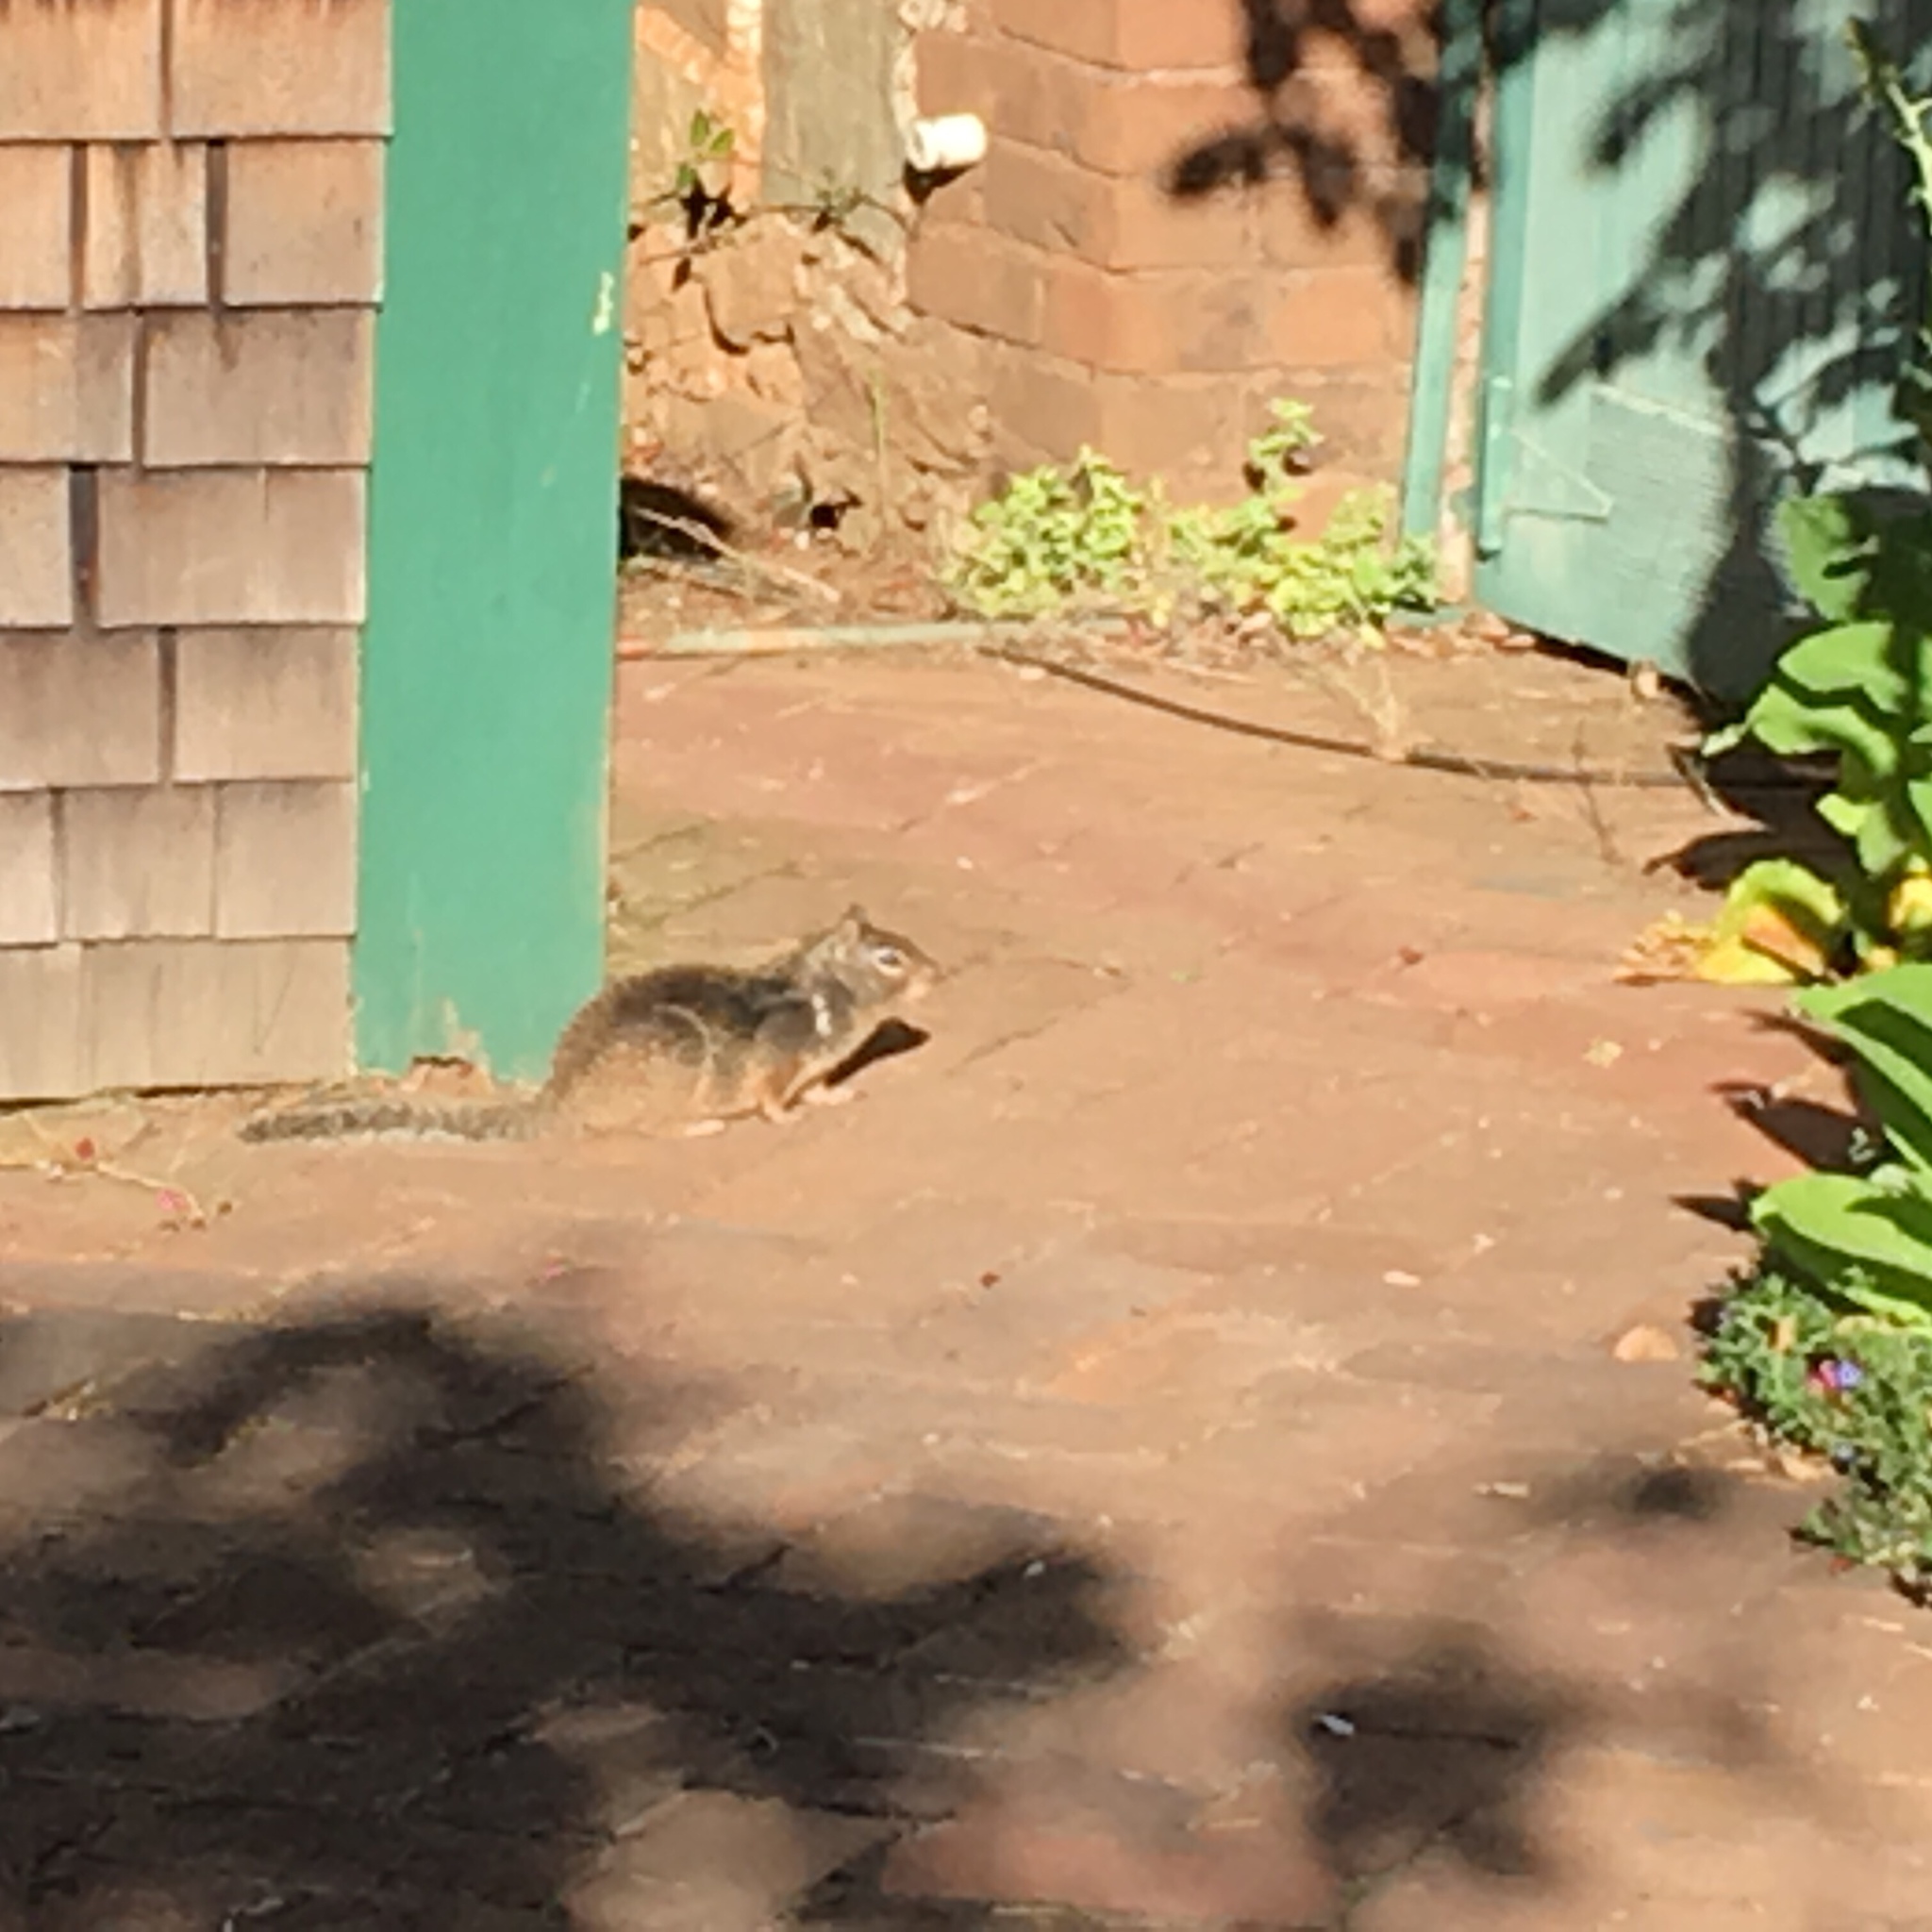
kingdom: Animalia
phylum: Chordata
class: Mammalia
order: Rodentia
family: Sciuridae
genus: Otospermophilus
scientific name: Otospermophilus beecheyi
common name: California ground squirrel
